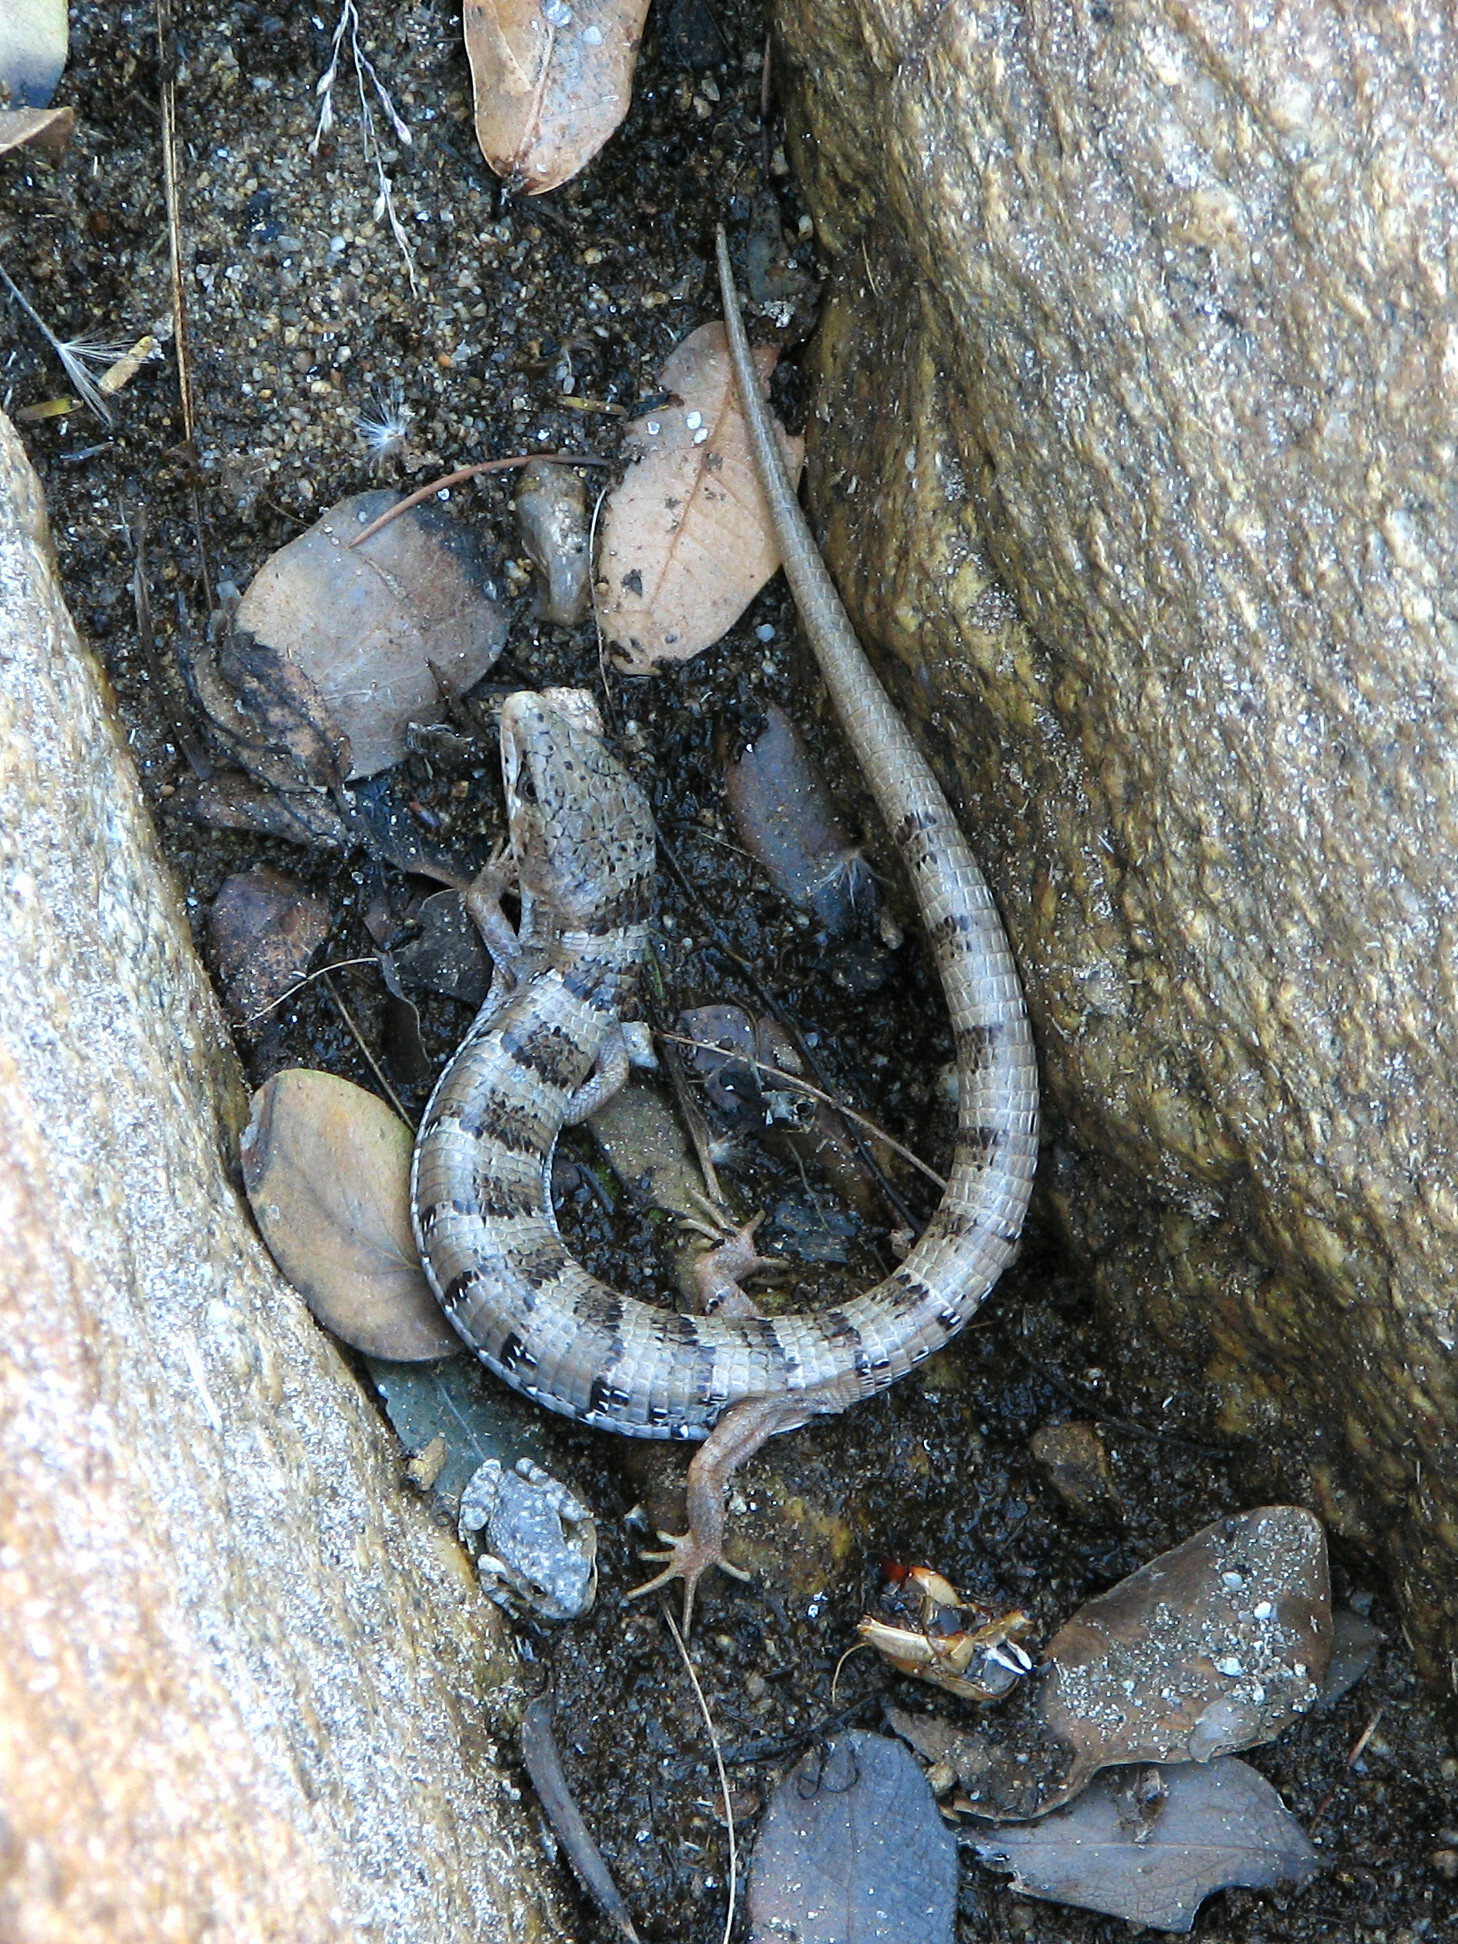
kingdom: Animalia
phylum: Chordata
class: Squamata
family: Anguidae
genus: Elgaria
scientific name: Elgaria kingii
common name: Madrean alligator lizard
